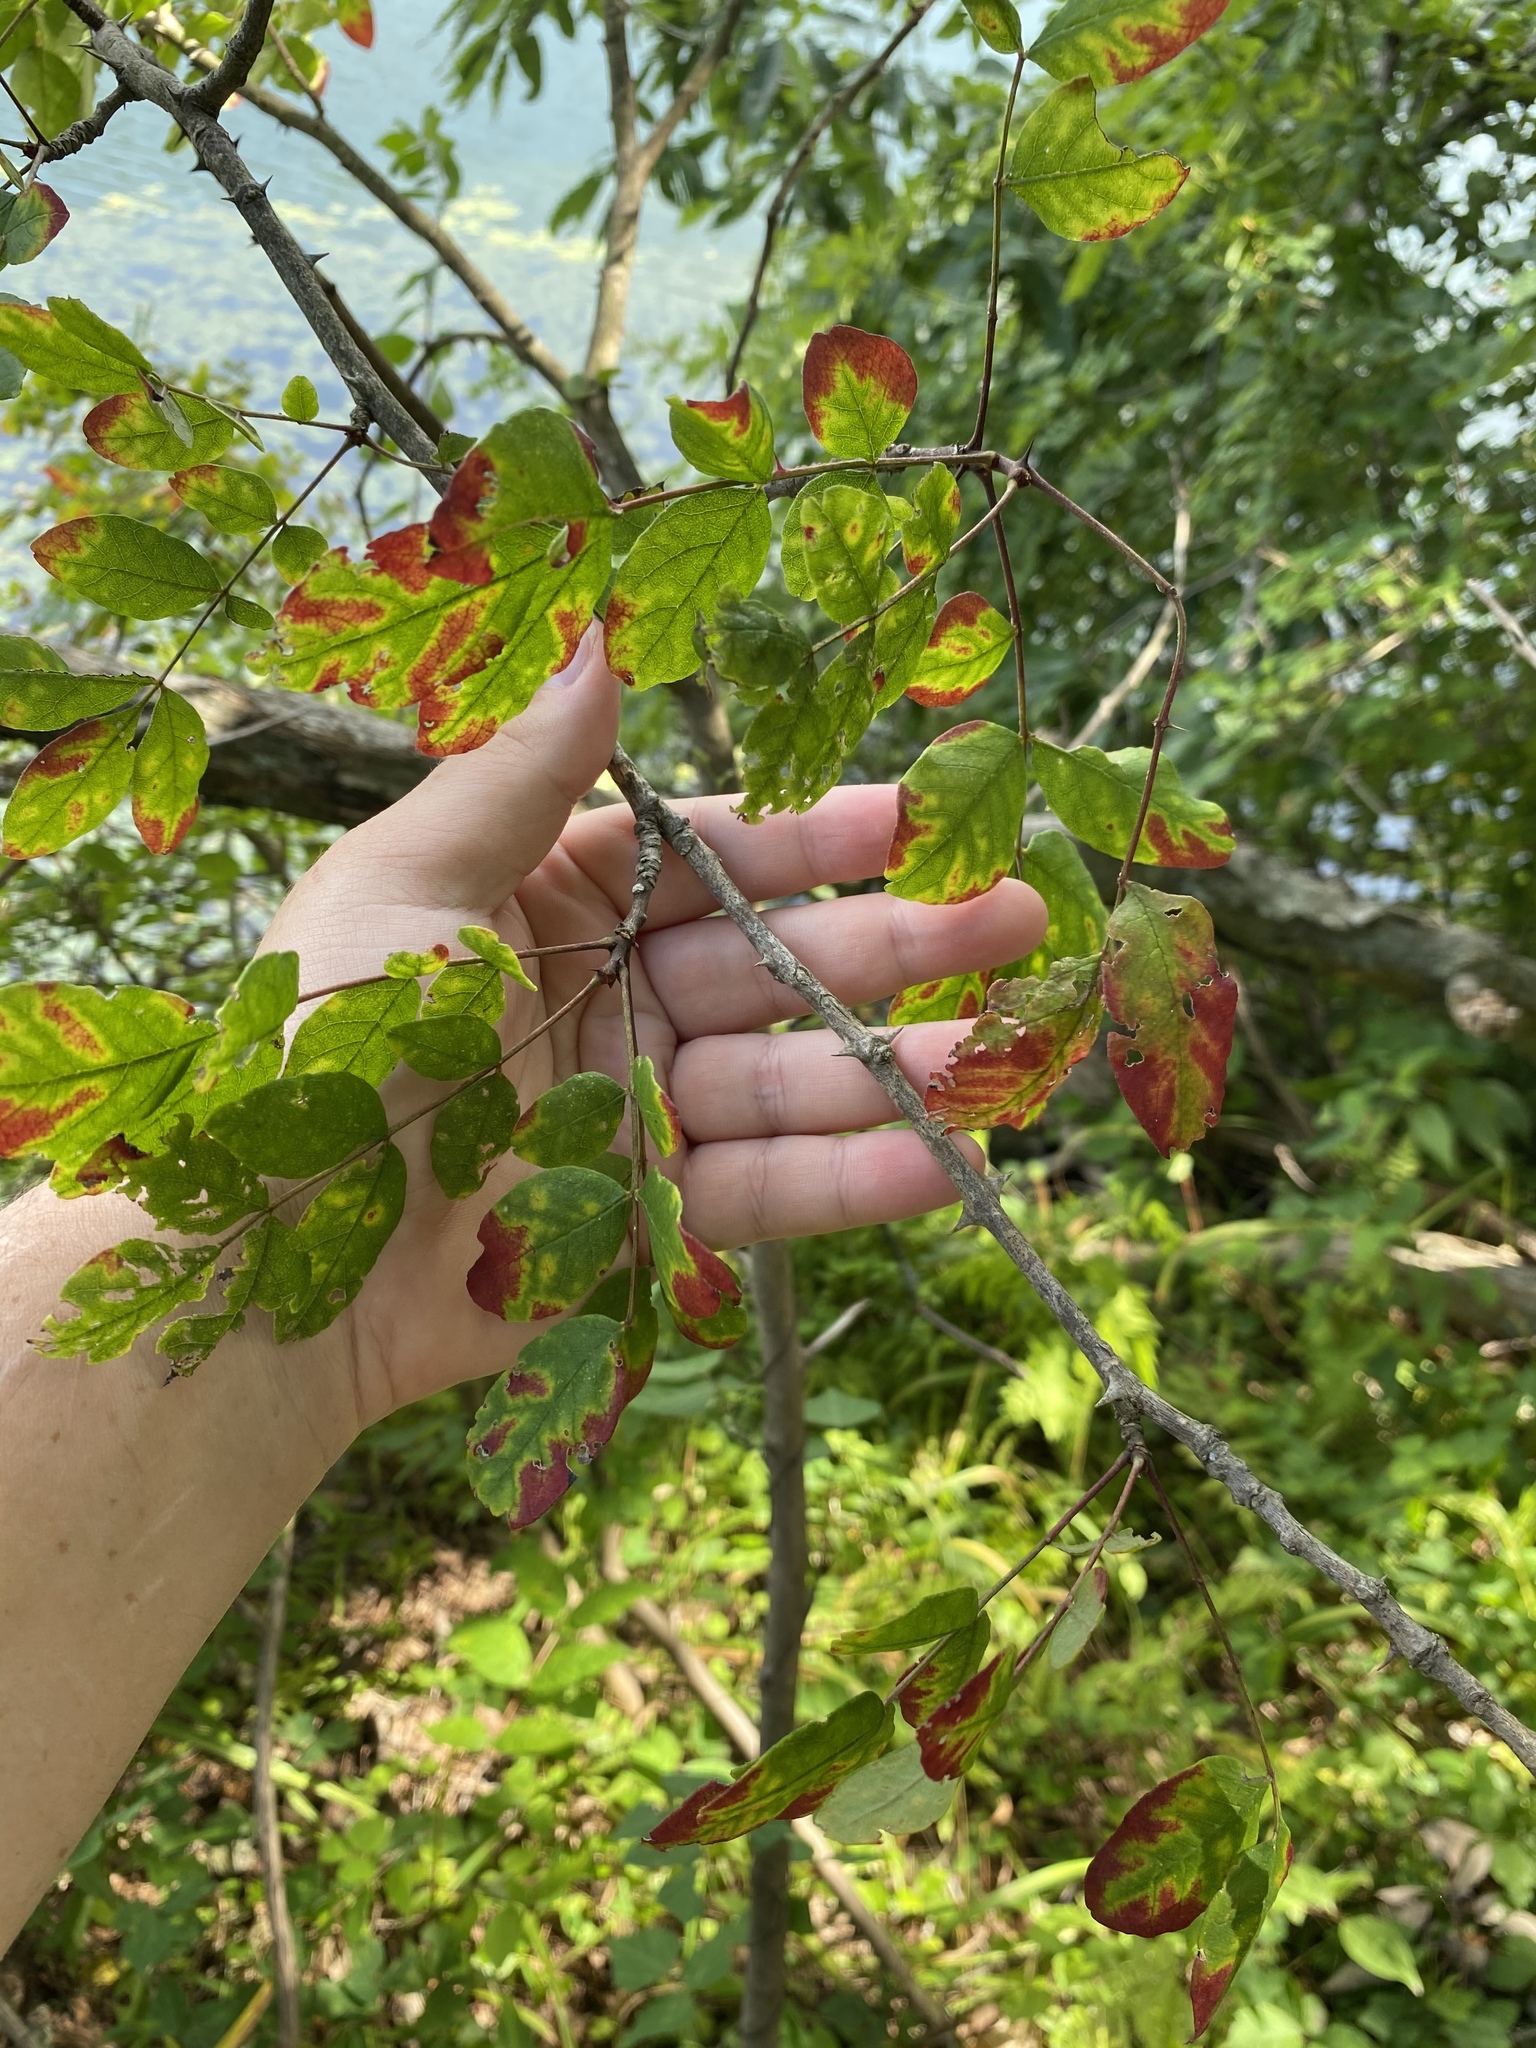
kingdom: Plantae
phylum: Tracheophyta
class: Magnoliopsida
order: Sapindales
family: Rutaceae
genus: Zanthoxylum
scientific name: Zanthoxylum americanum
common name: Northern prickly-ash
